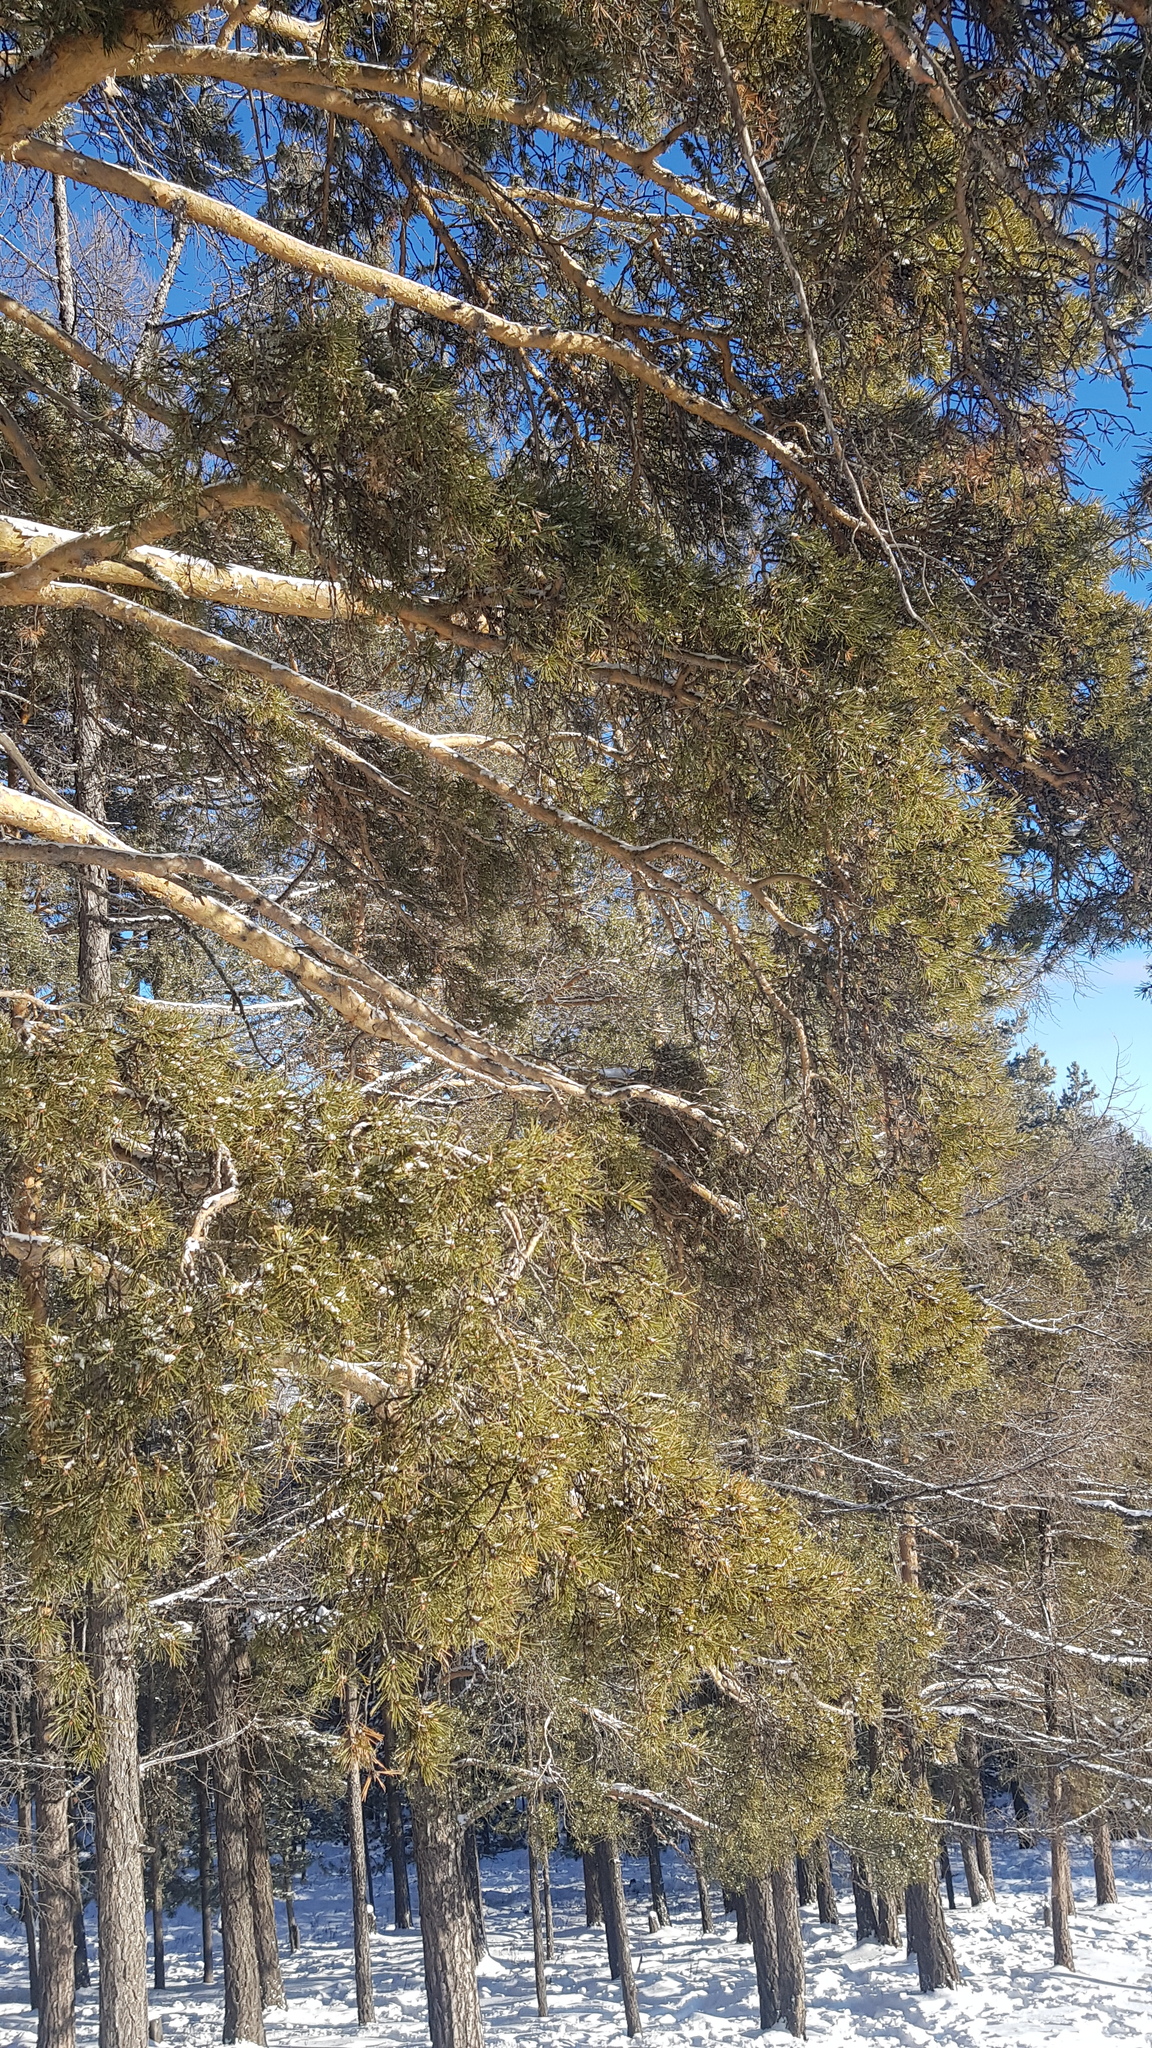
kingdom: Plantae
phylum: Tracheophyta
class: Pinopsida
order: Pinales
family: Pinaceae
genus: Pinus
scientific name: Pinus sylvestris
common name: Scots pine
